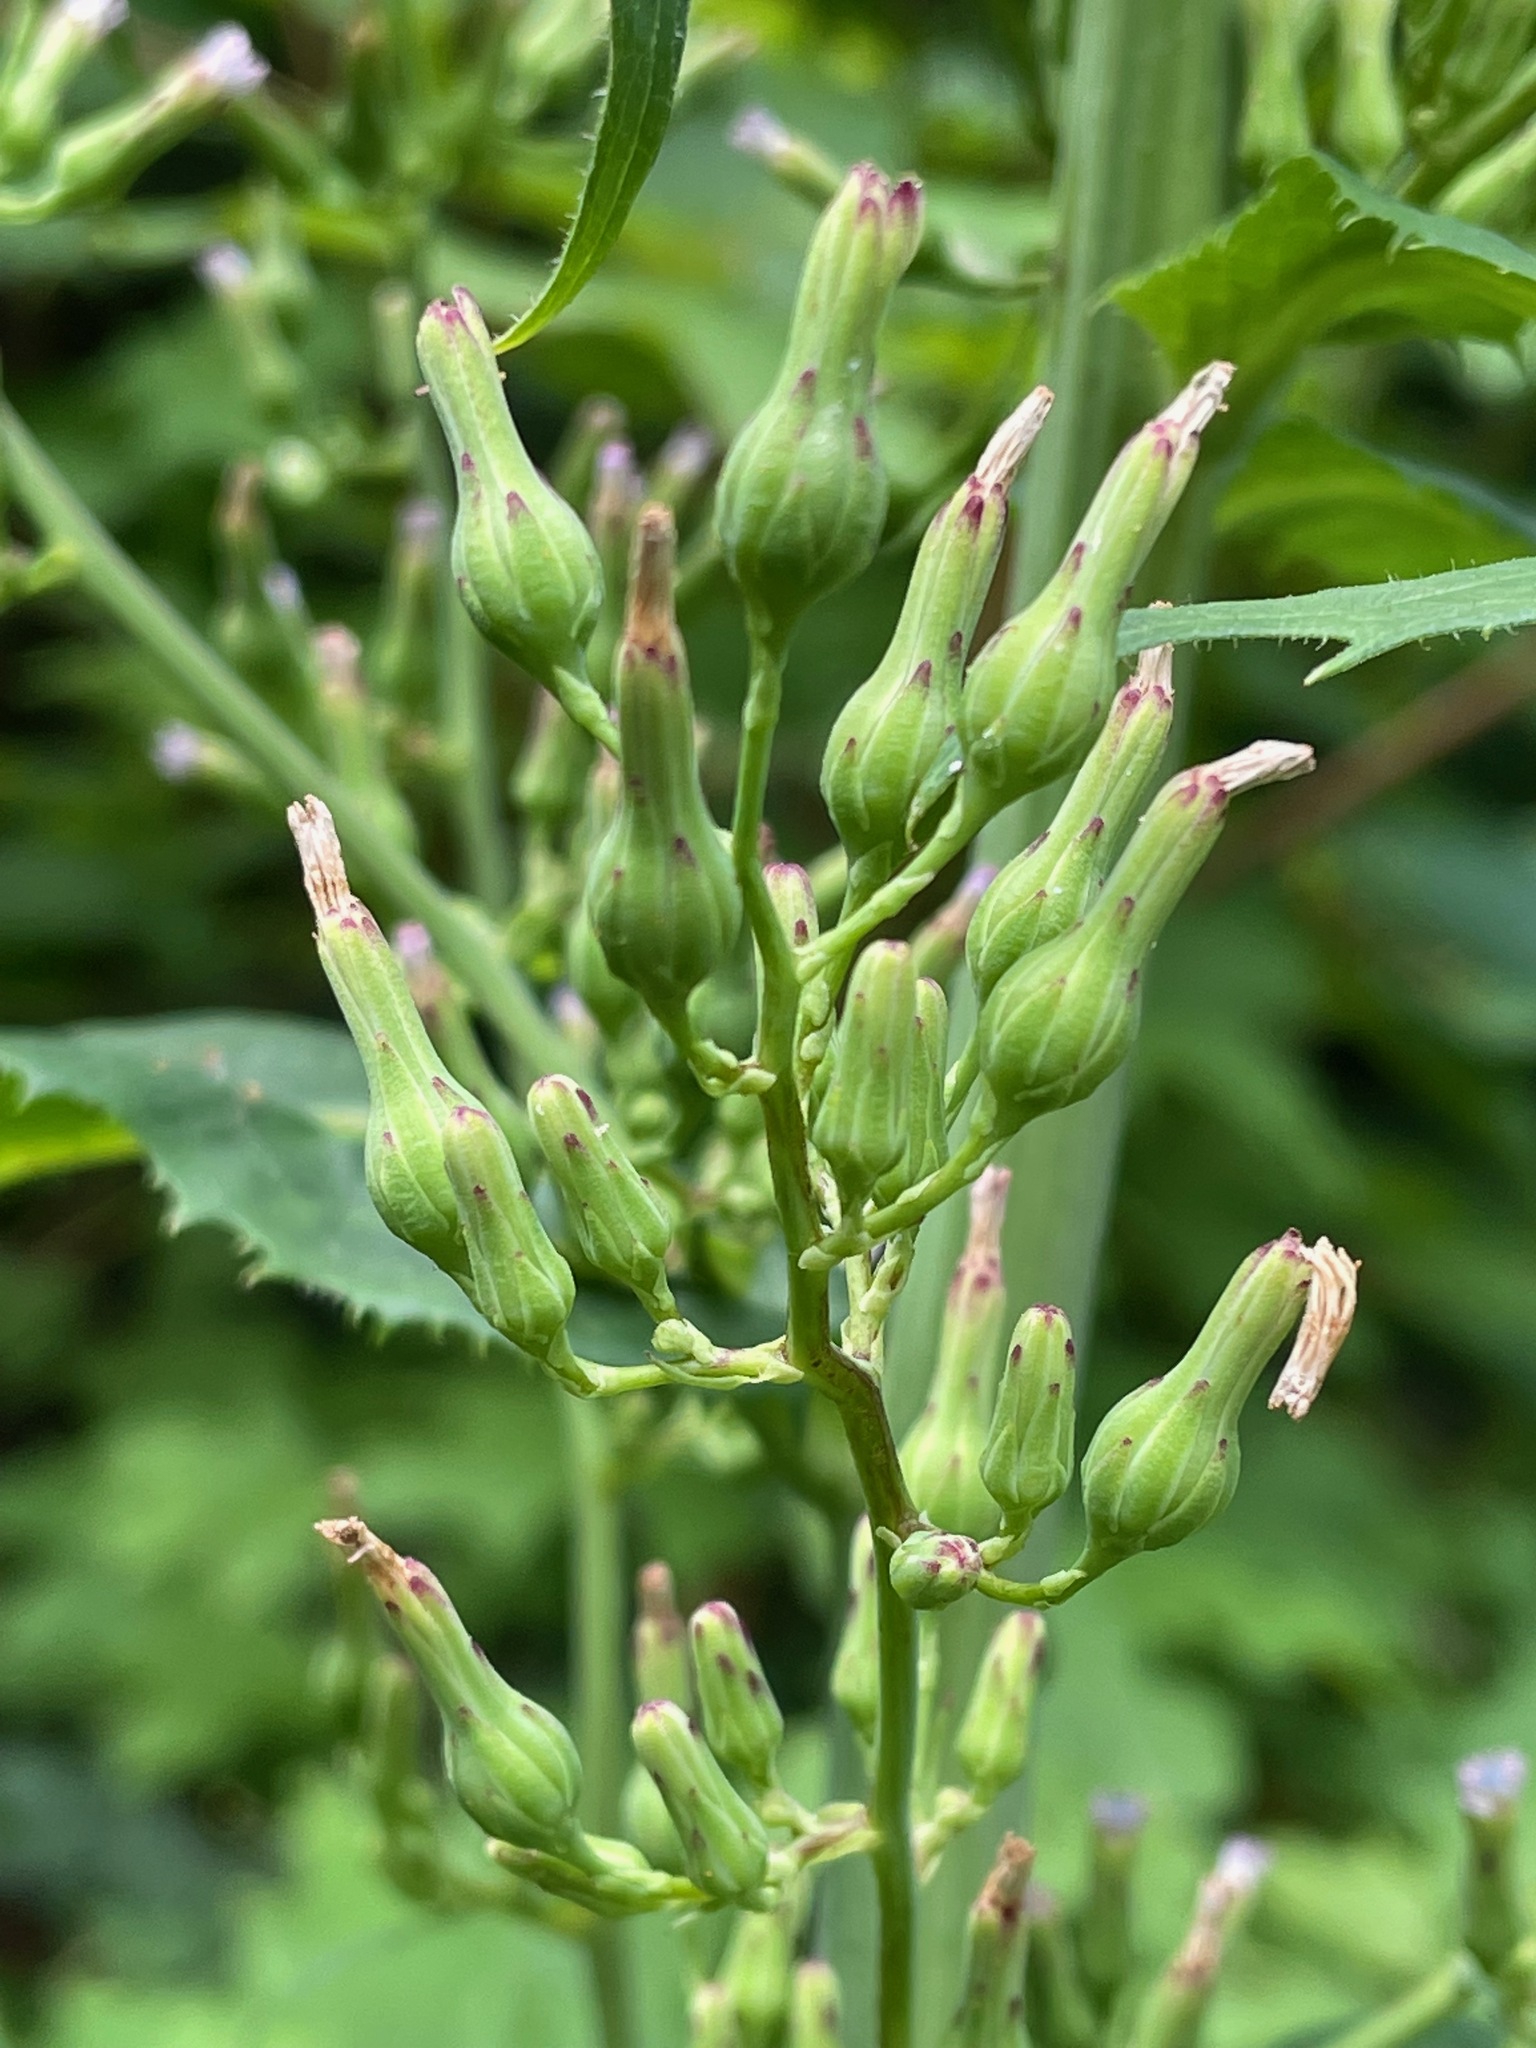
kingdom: Plantae
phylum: Tracheophyta
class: Magnoliopsida
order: Asterales
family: Asteraceae
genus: Lactuca
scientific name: Lactuca biennis
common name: Blue wood lettuce
